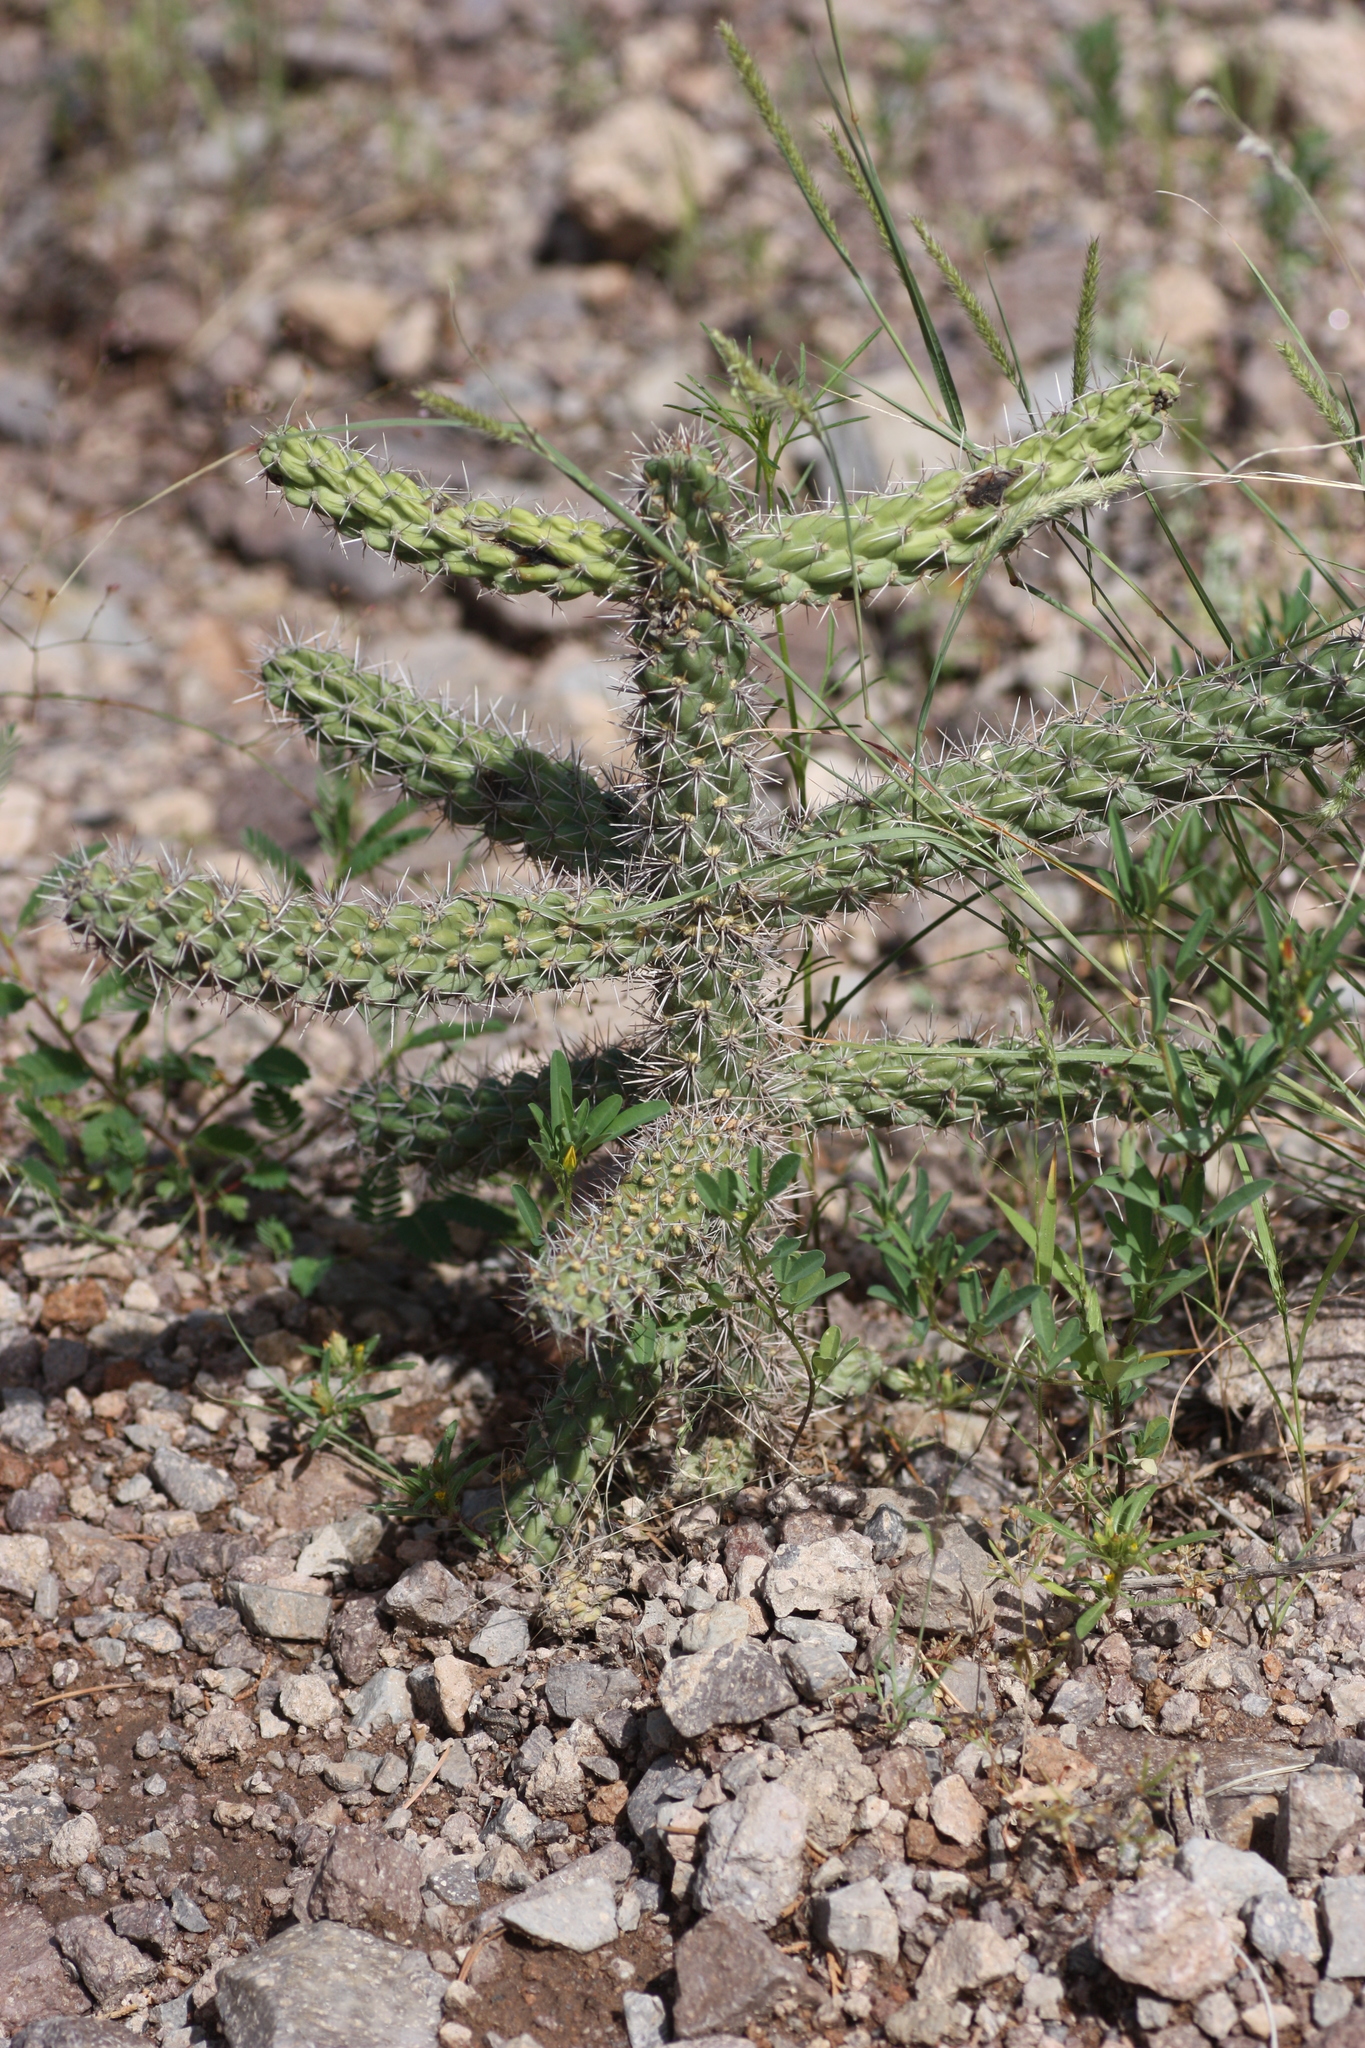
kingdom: Plantae
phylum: Tracheophyta
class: Magnoliopsida
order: Caryophyllales
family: Cactaceae
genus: Cylindropuntia
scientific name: Cylindropuntia imbricata
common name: Candelabrum cactus
